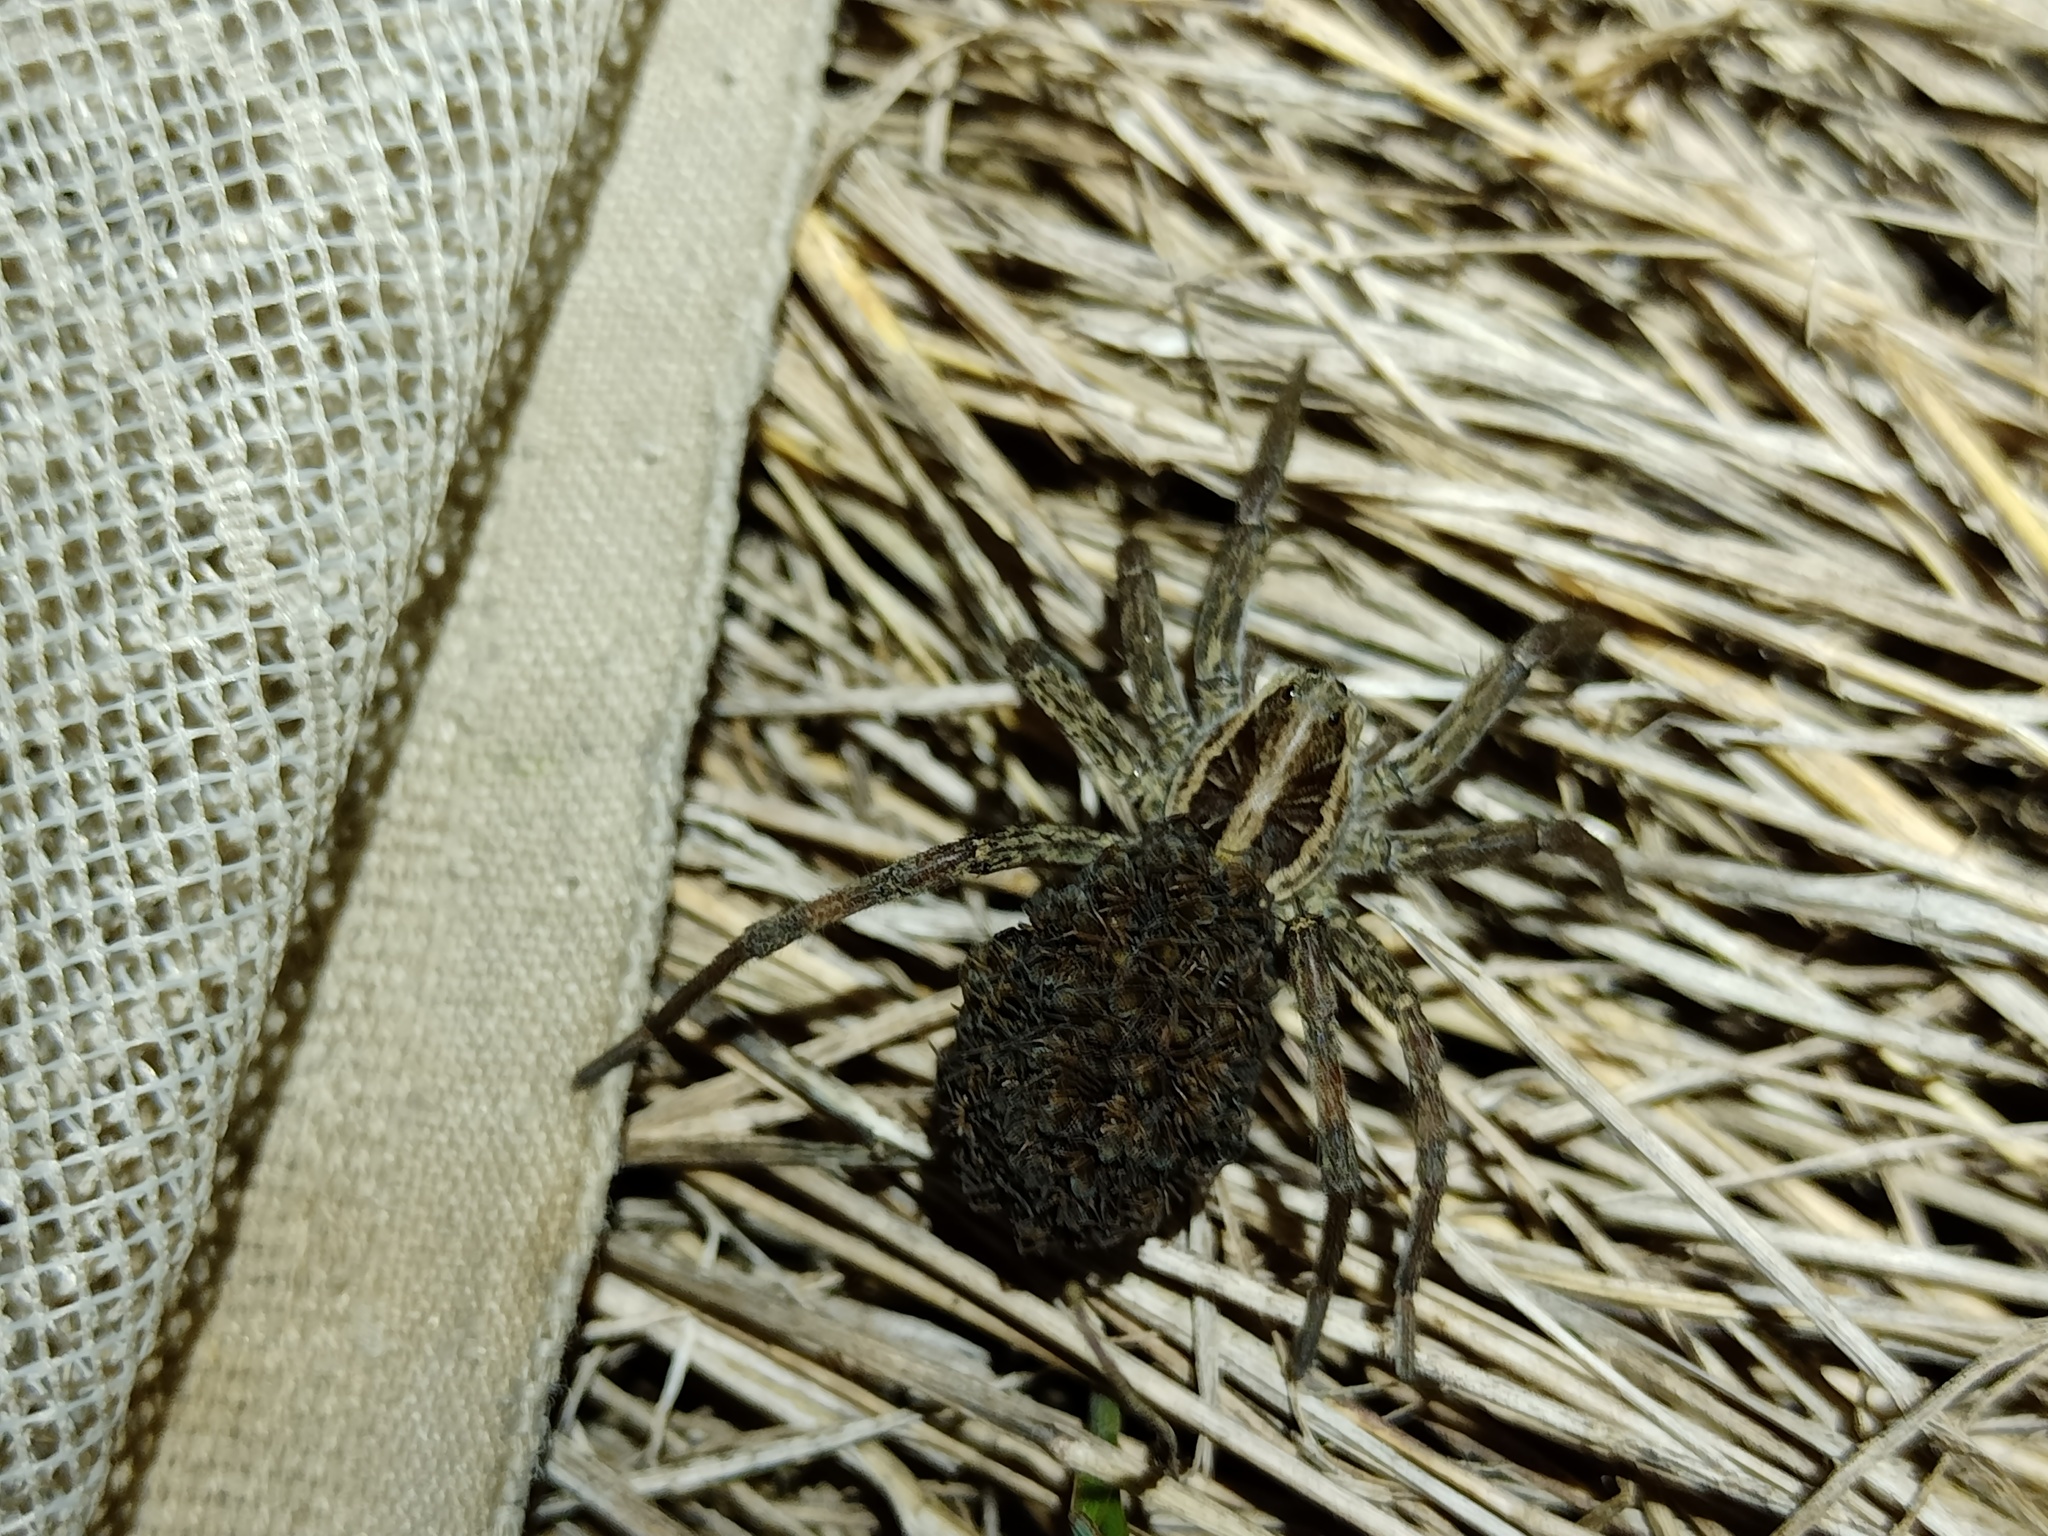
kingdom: Animalia
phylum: Arthropoda
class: Arachnida
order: Araneae
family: Lycosidae
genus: Hogna
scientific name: Hogna radiata
